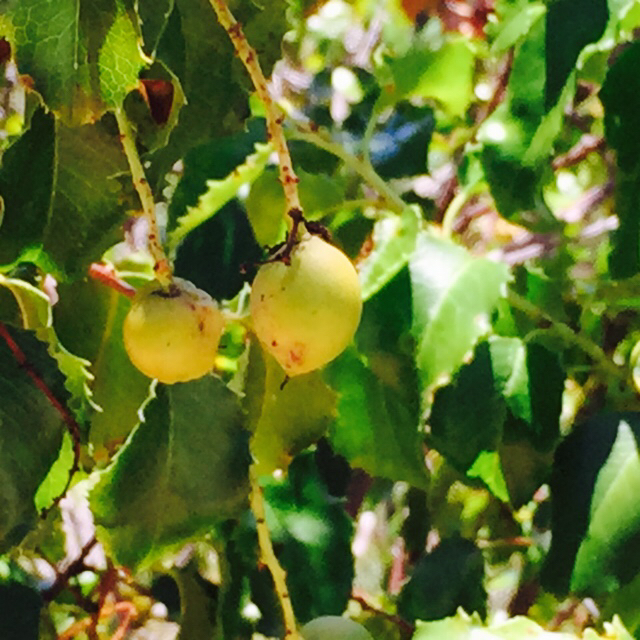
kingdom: Plantae
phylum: Tracheophyta
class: Magnoliopsida
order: Rosales
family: Rosaceae
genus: Prunus
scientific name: Prunus ilicifolia
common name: Hollyleaf cherry
